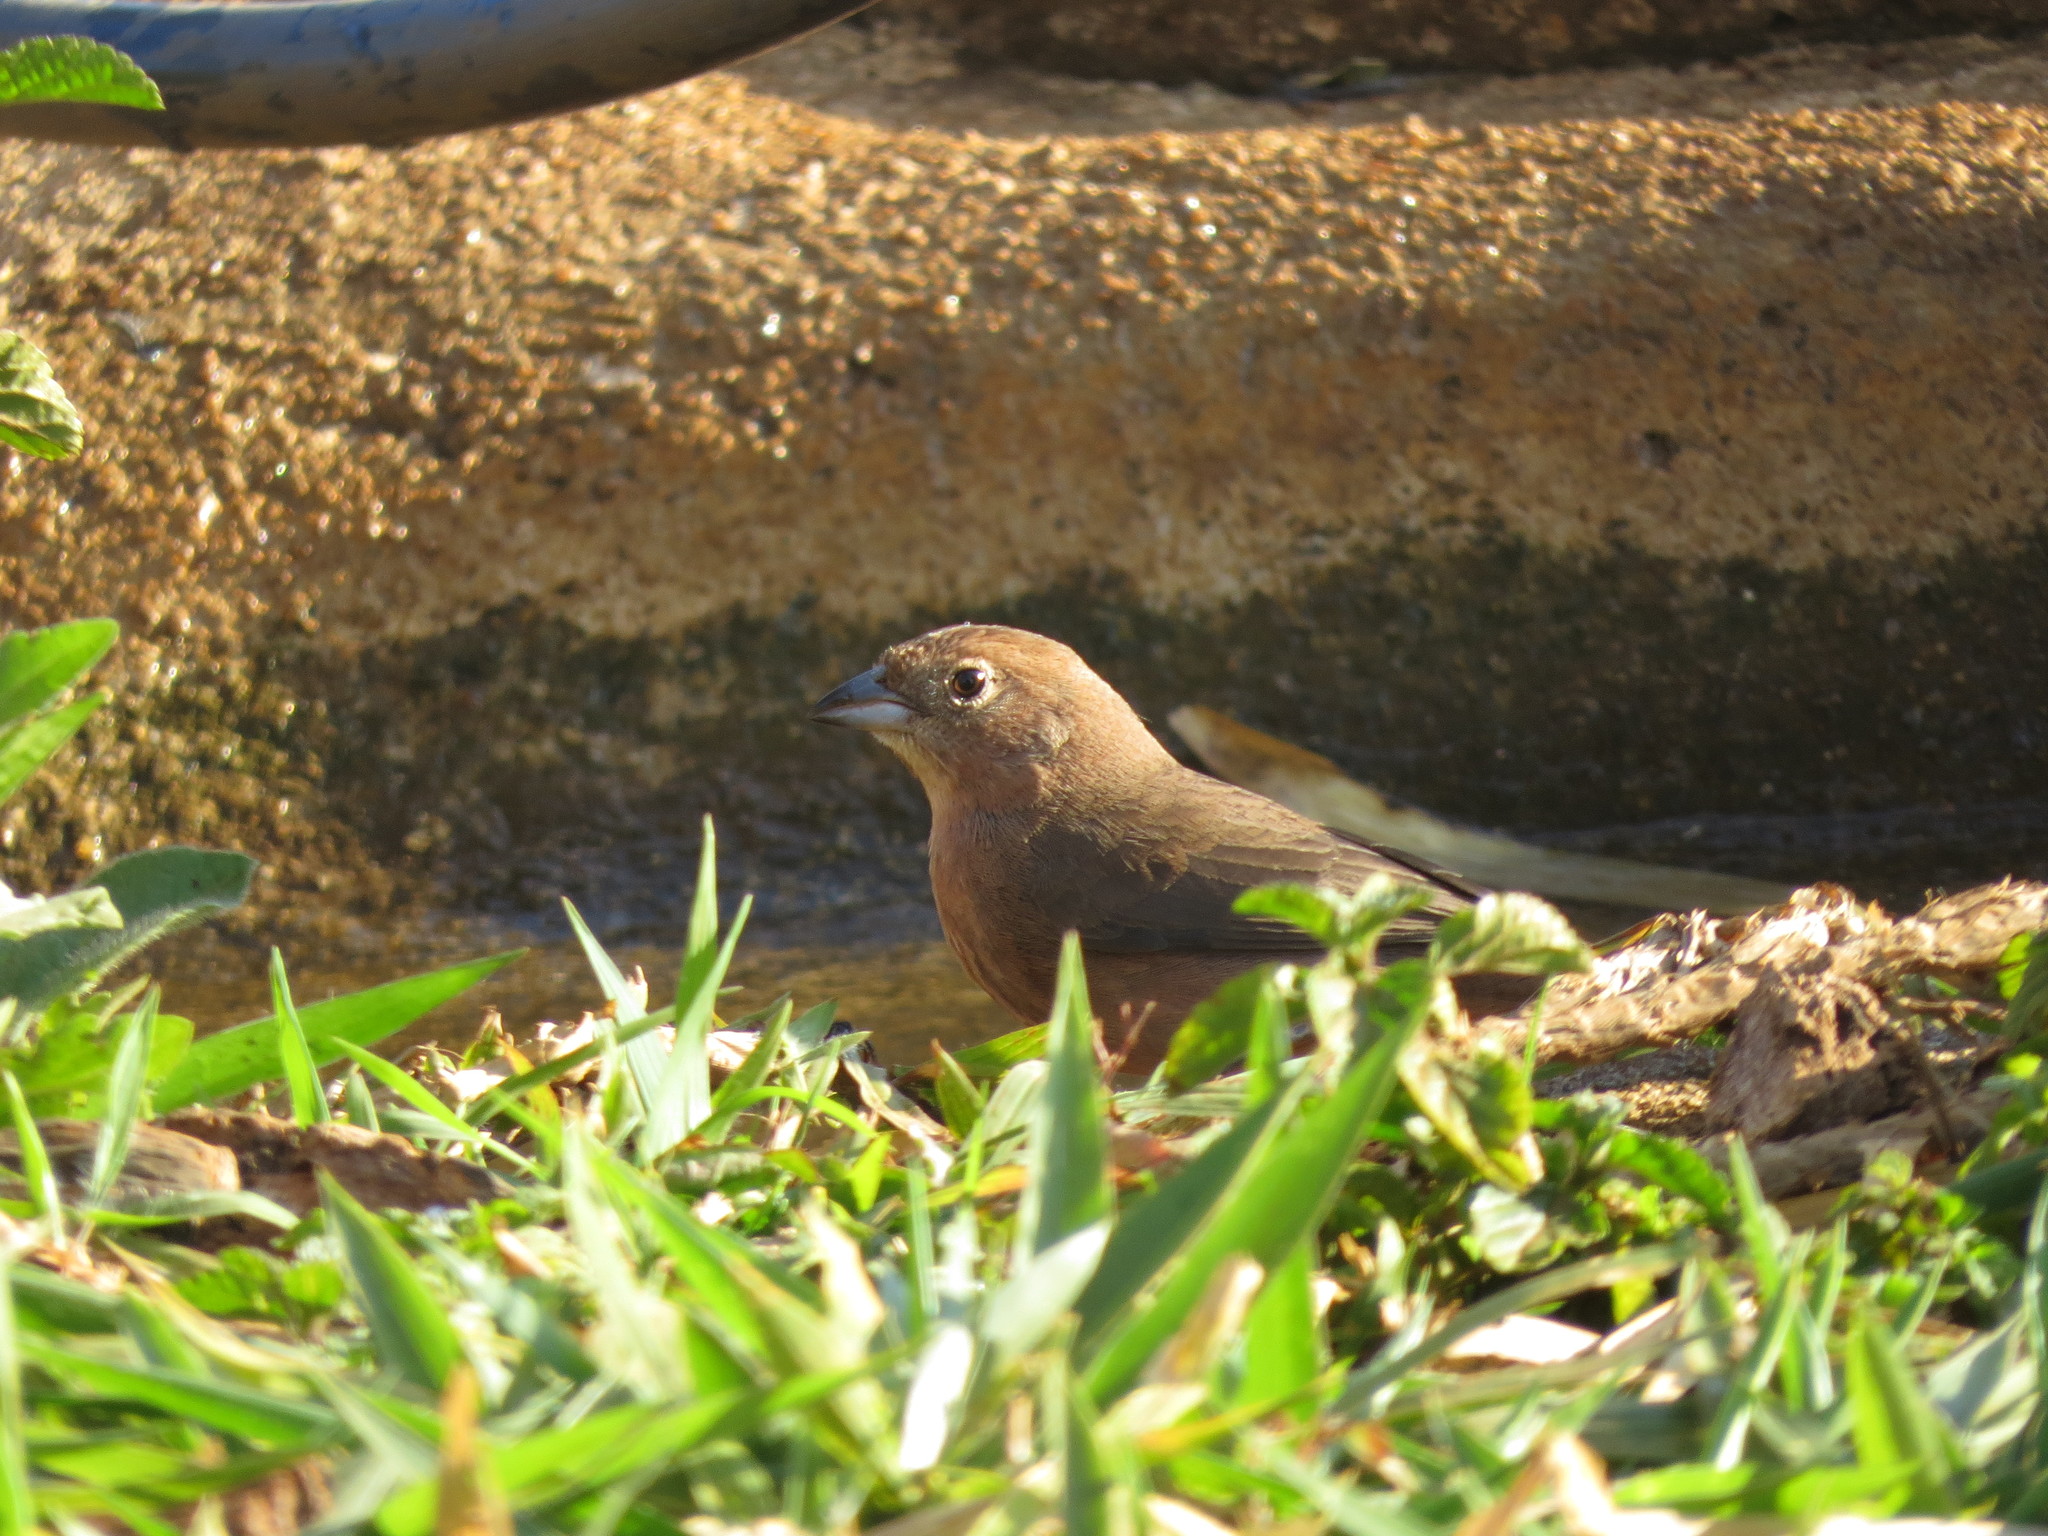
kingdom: Animalia
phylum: Chordata
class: Aves
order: Passeriformes
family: Thraupidae
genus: Coryphospingus
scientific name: Coryphospingus cucullatus
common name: Red pileated finch
